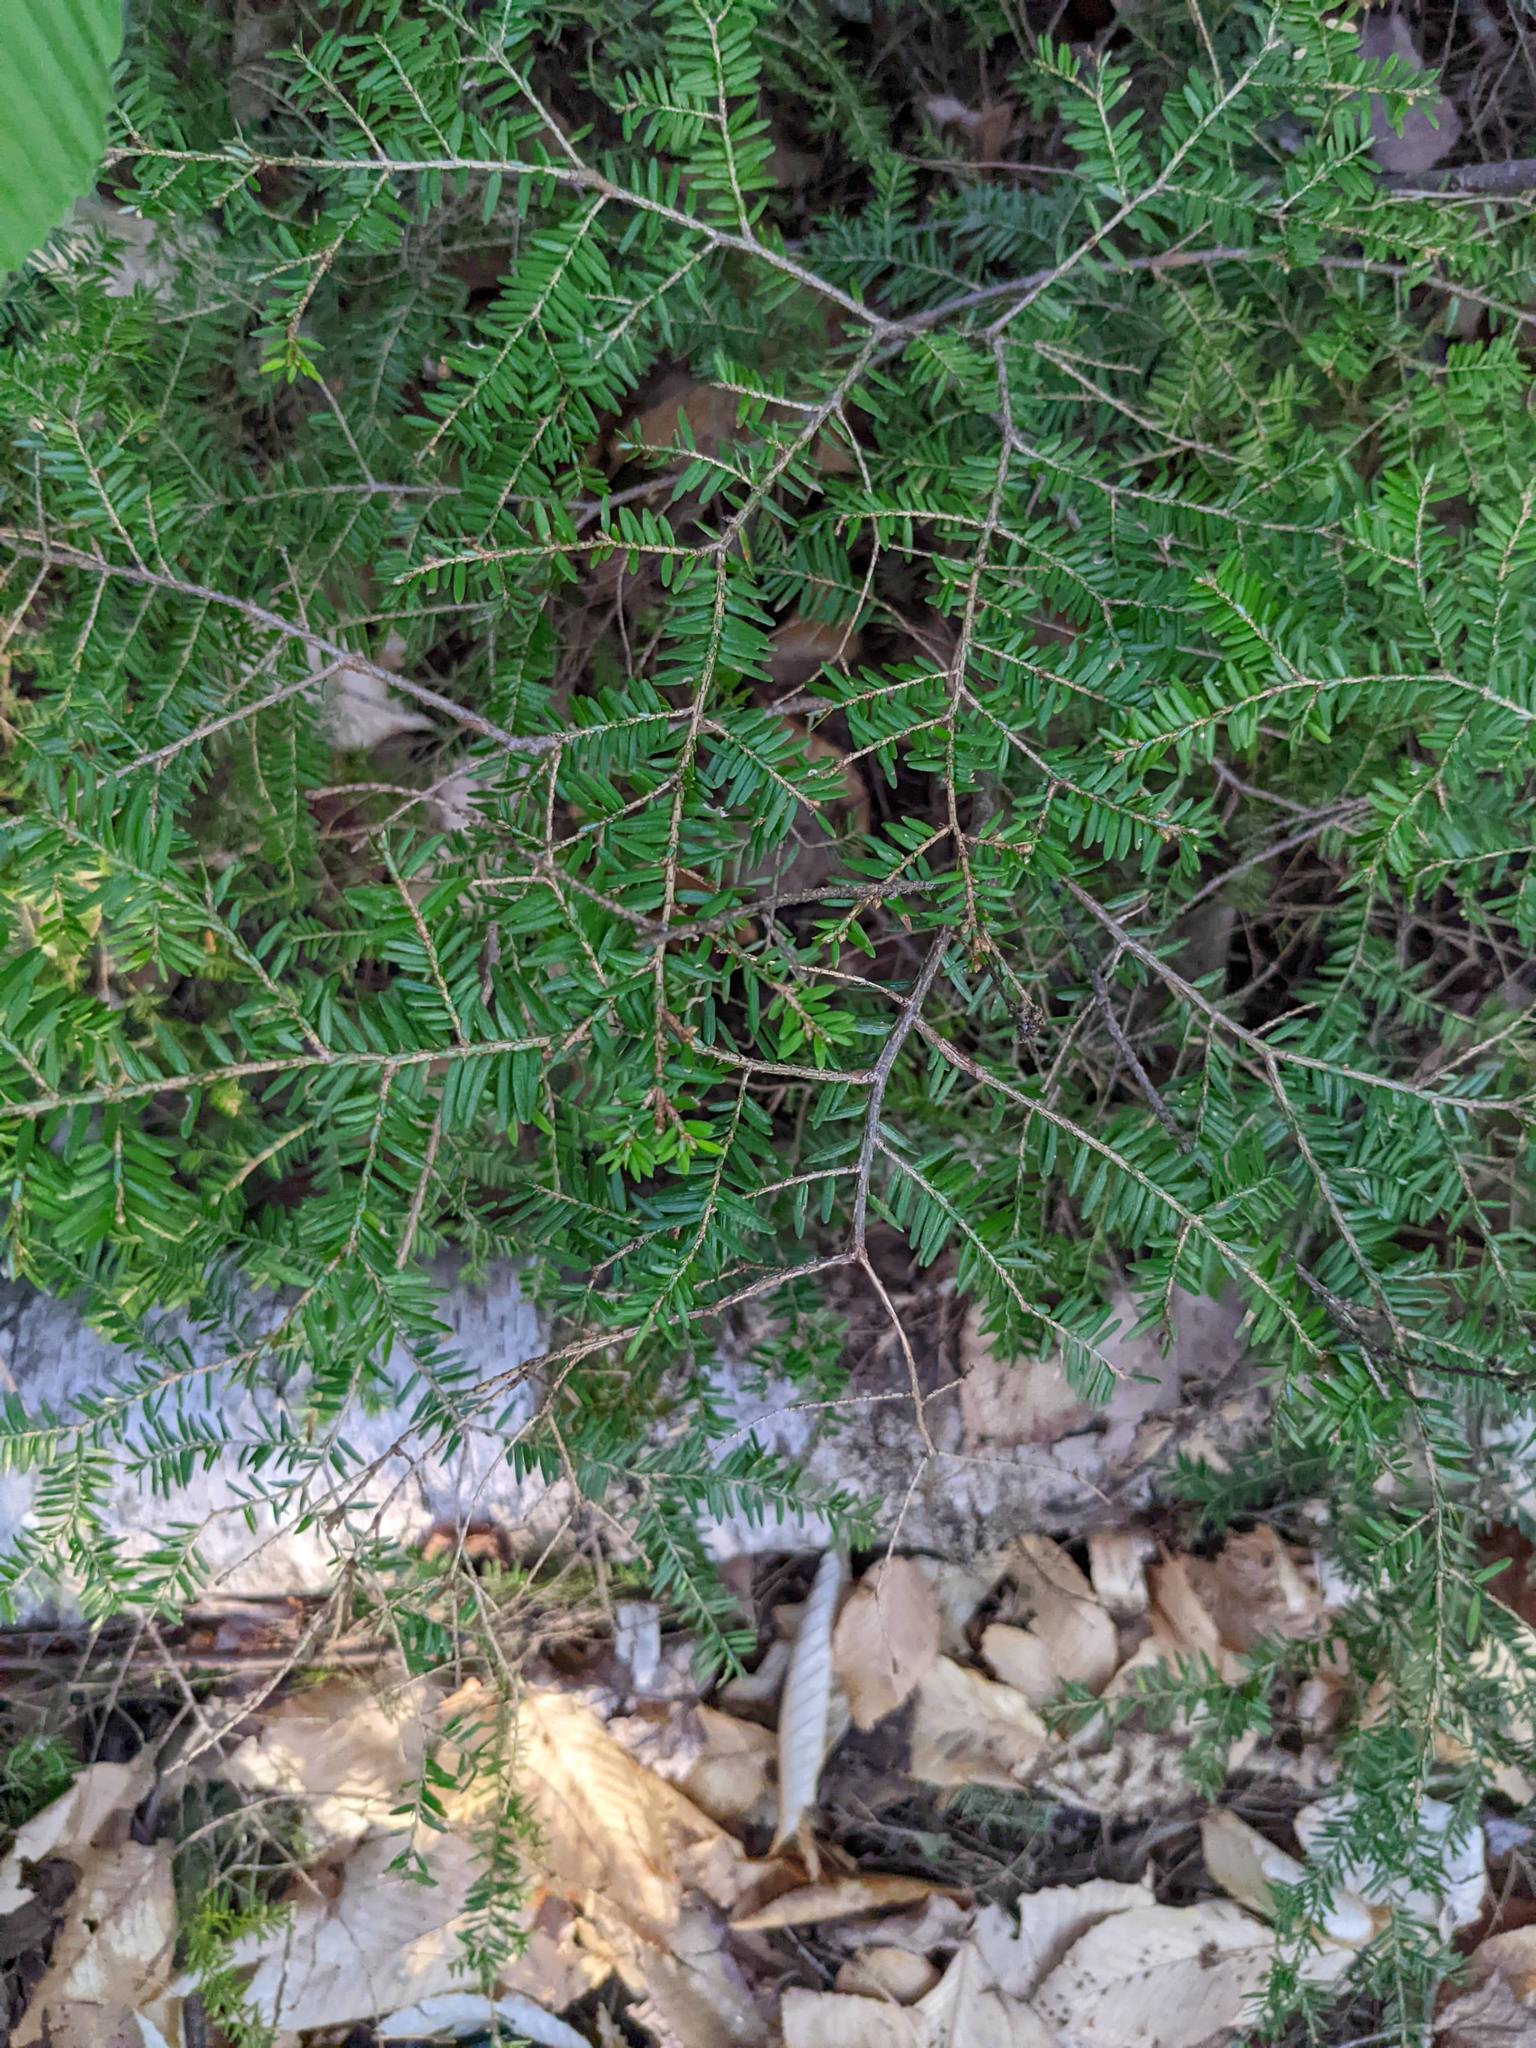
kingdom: Plantae
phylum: Tracheophyta
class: Pinopsida
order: Pinales
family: Pinaceae
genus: Tsuga
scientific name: Tsuga canadensis
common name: Eastern hemlock
